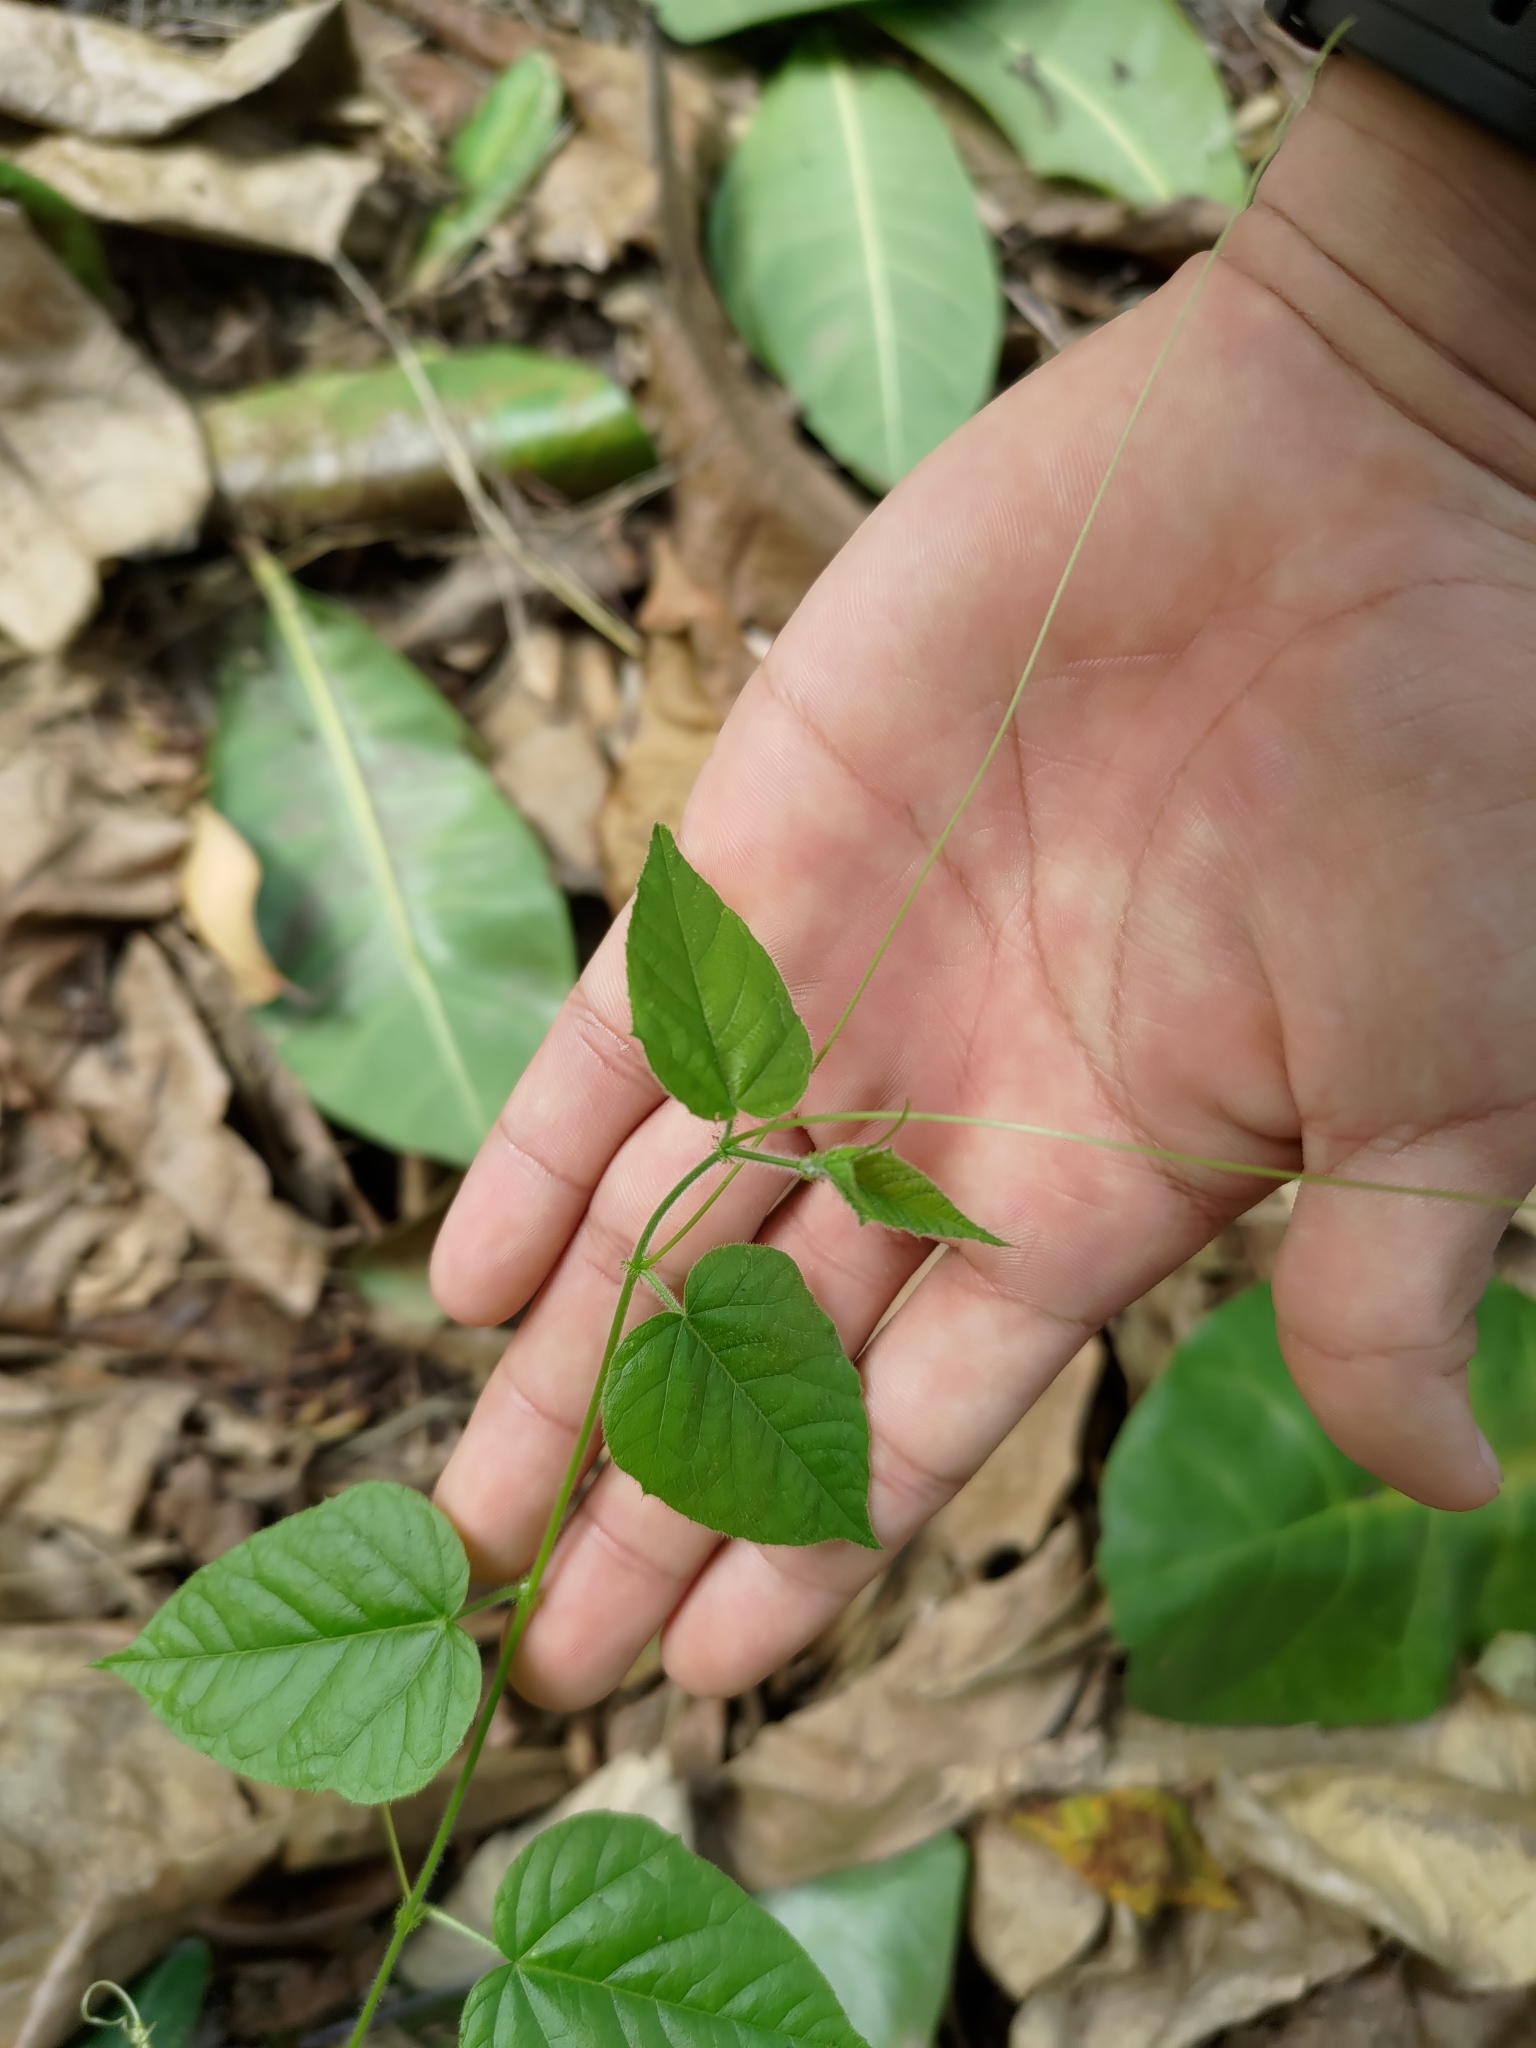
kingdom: Plantae
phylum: Tracheophyta
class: Magnoliopsida
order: Vitales
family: Vitaceae
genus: Cissus
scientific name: Cissus verticillata
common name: Princess vine
